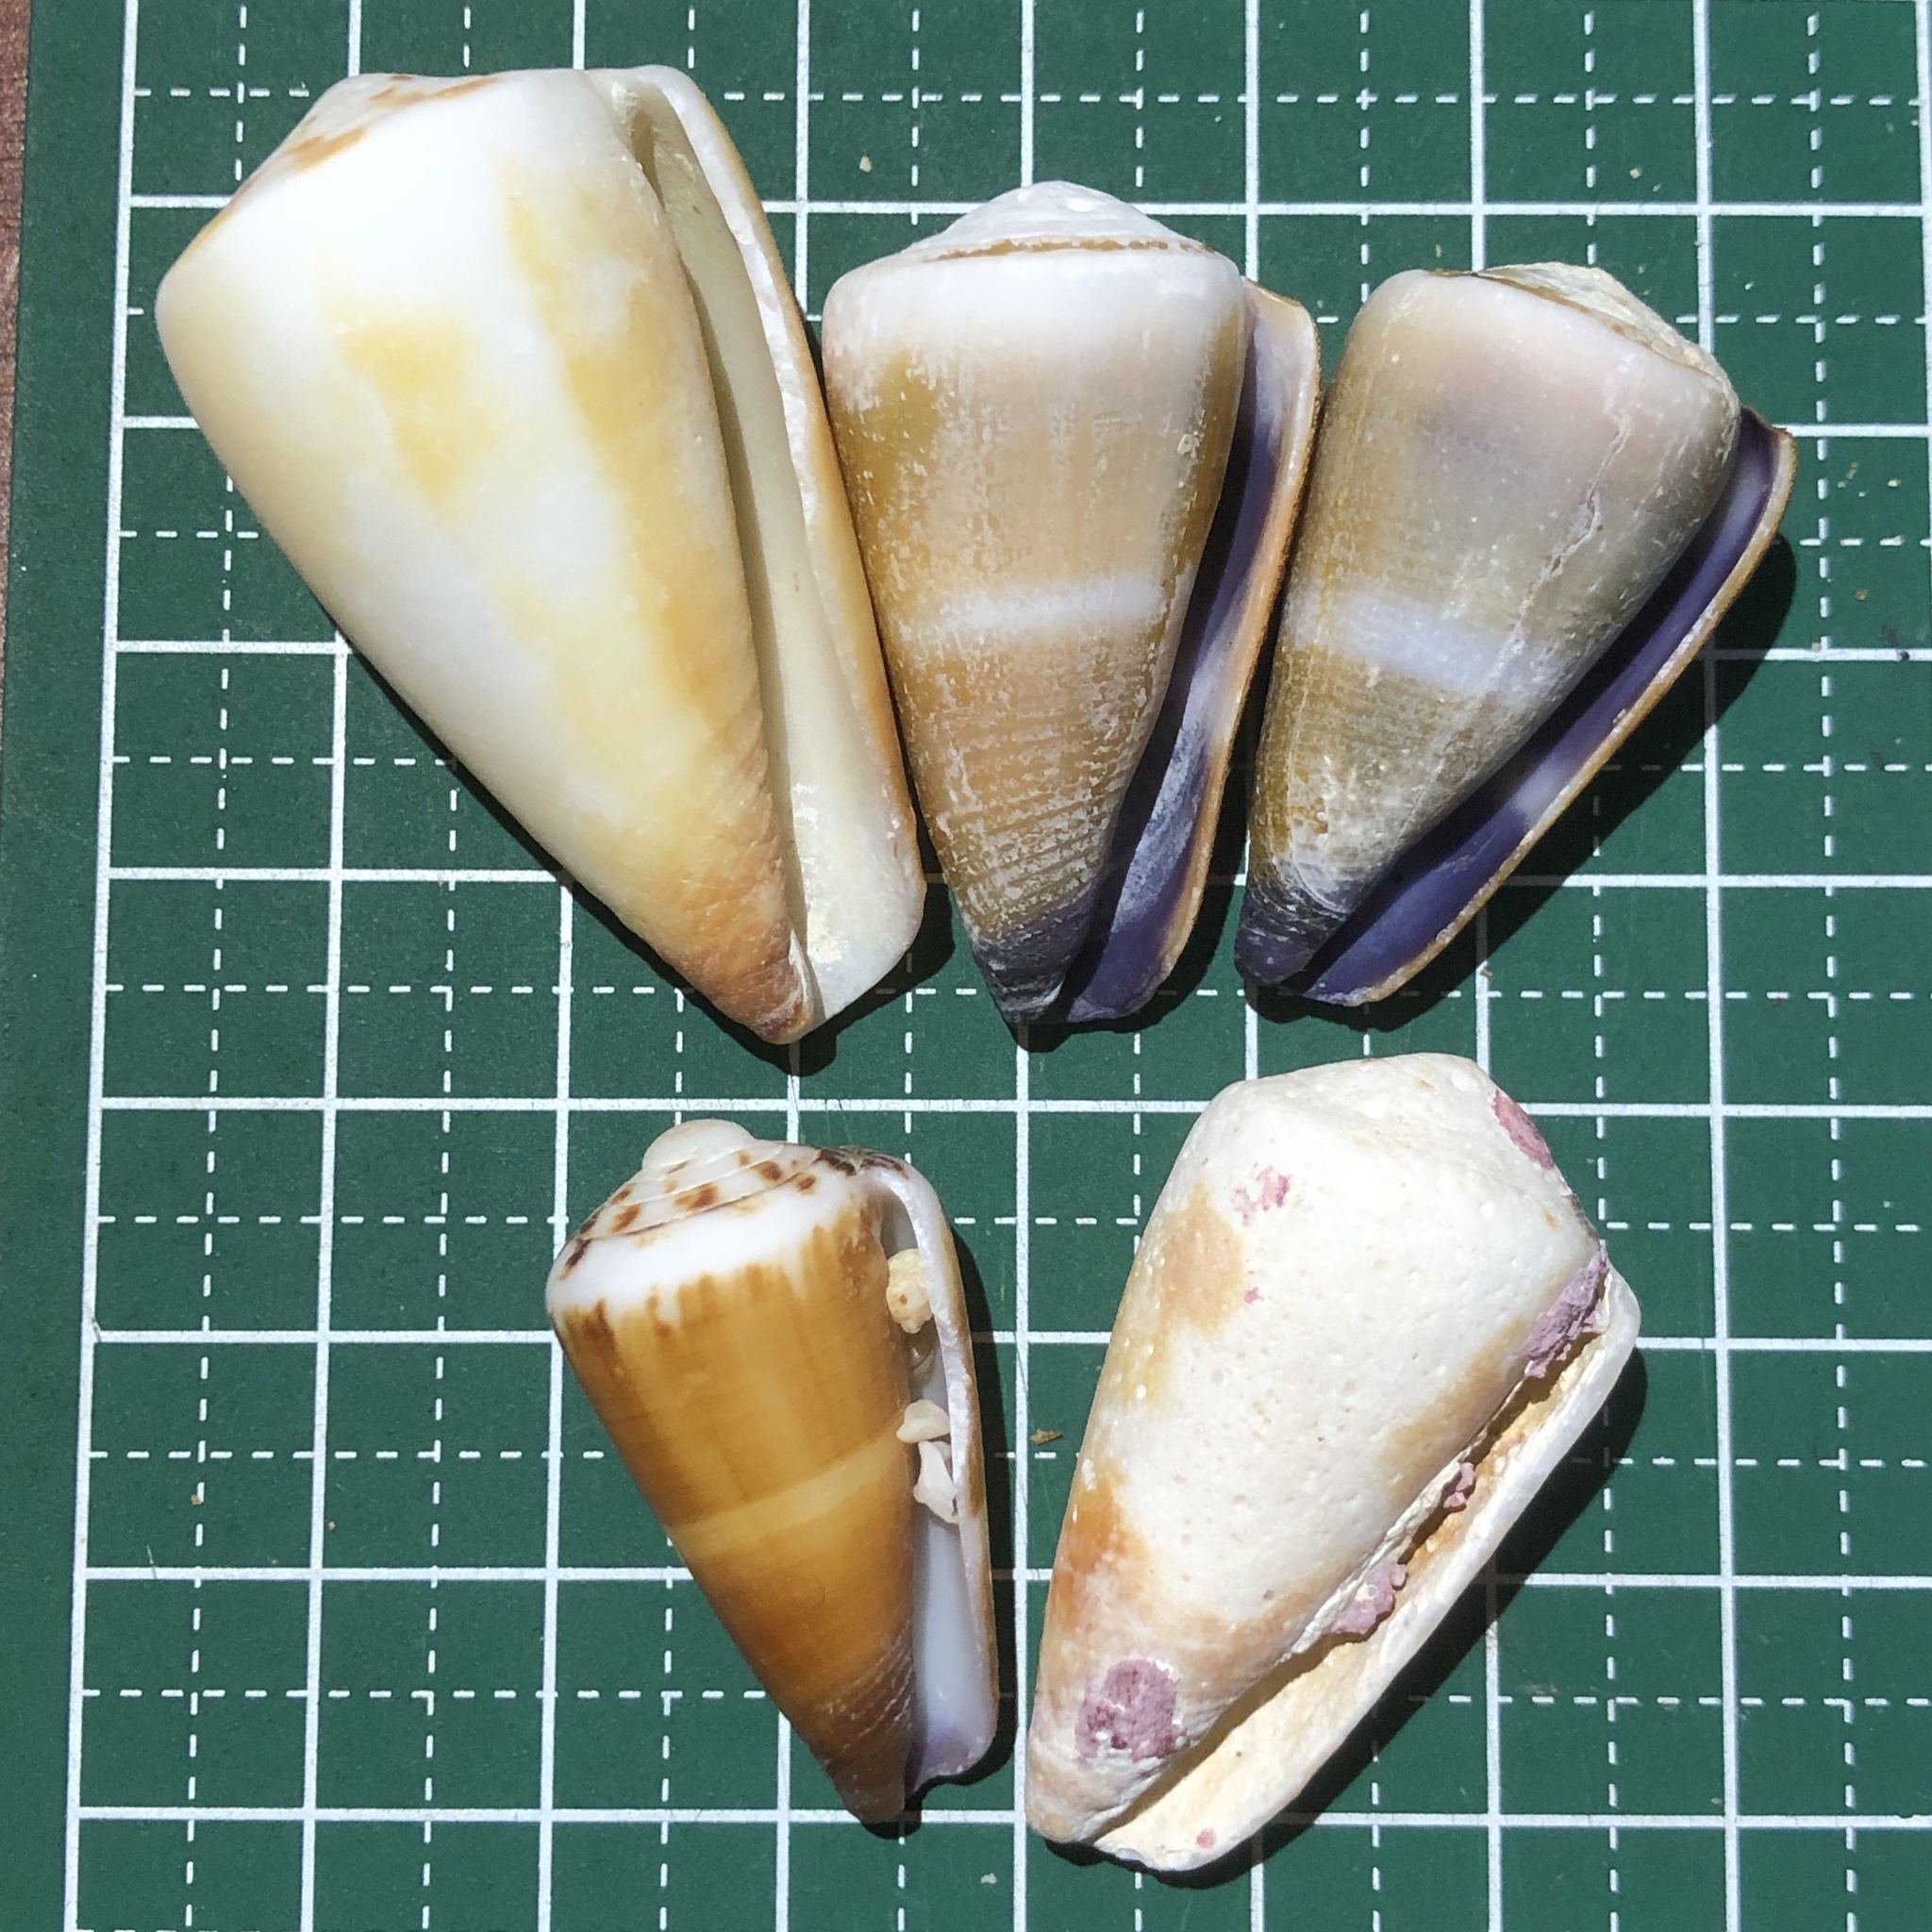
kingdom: Animalia
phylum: Mollusca
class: Gastropoda
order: Neogastropoda
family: Conidae
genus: Conus
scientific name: Conus planorbis
